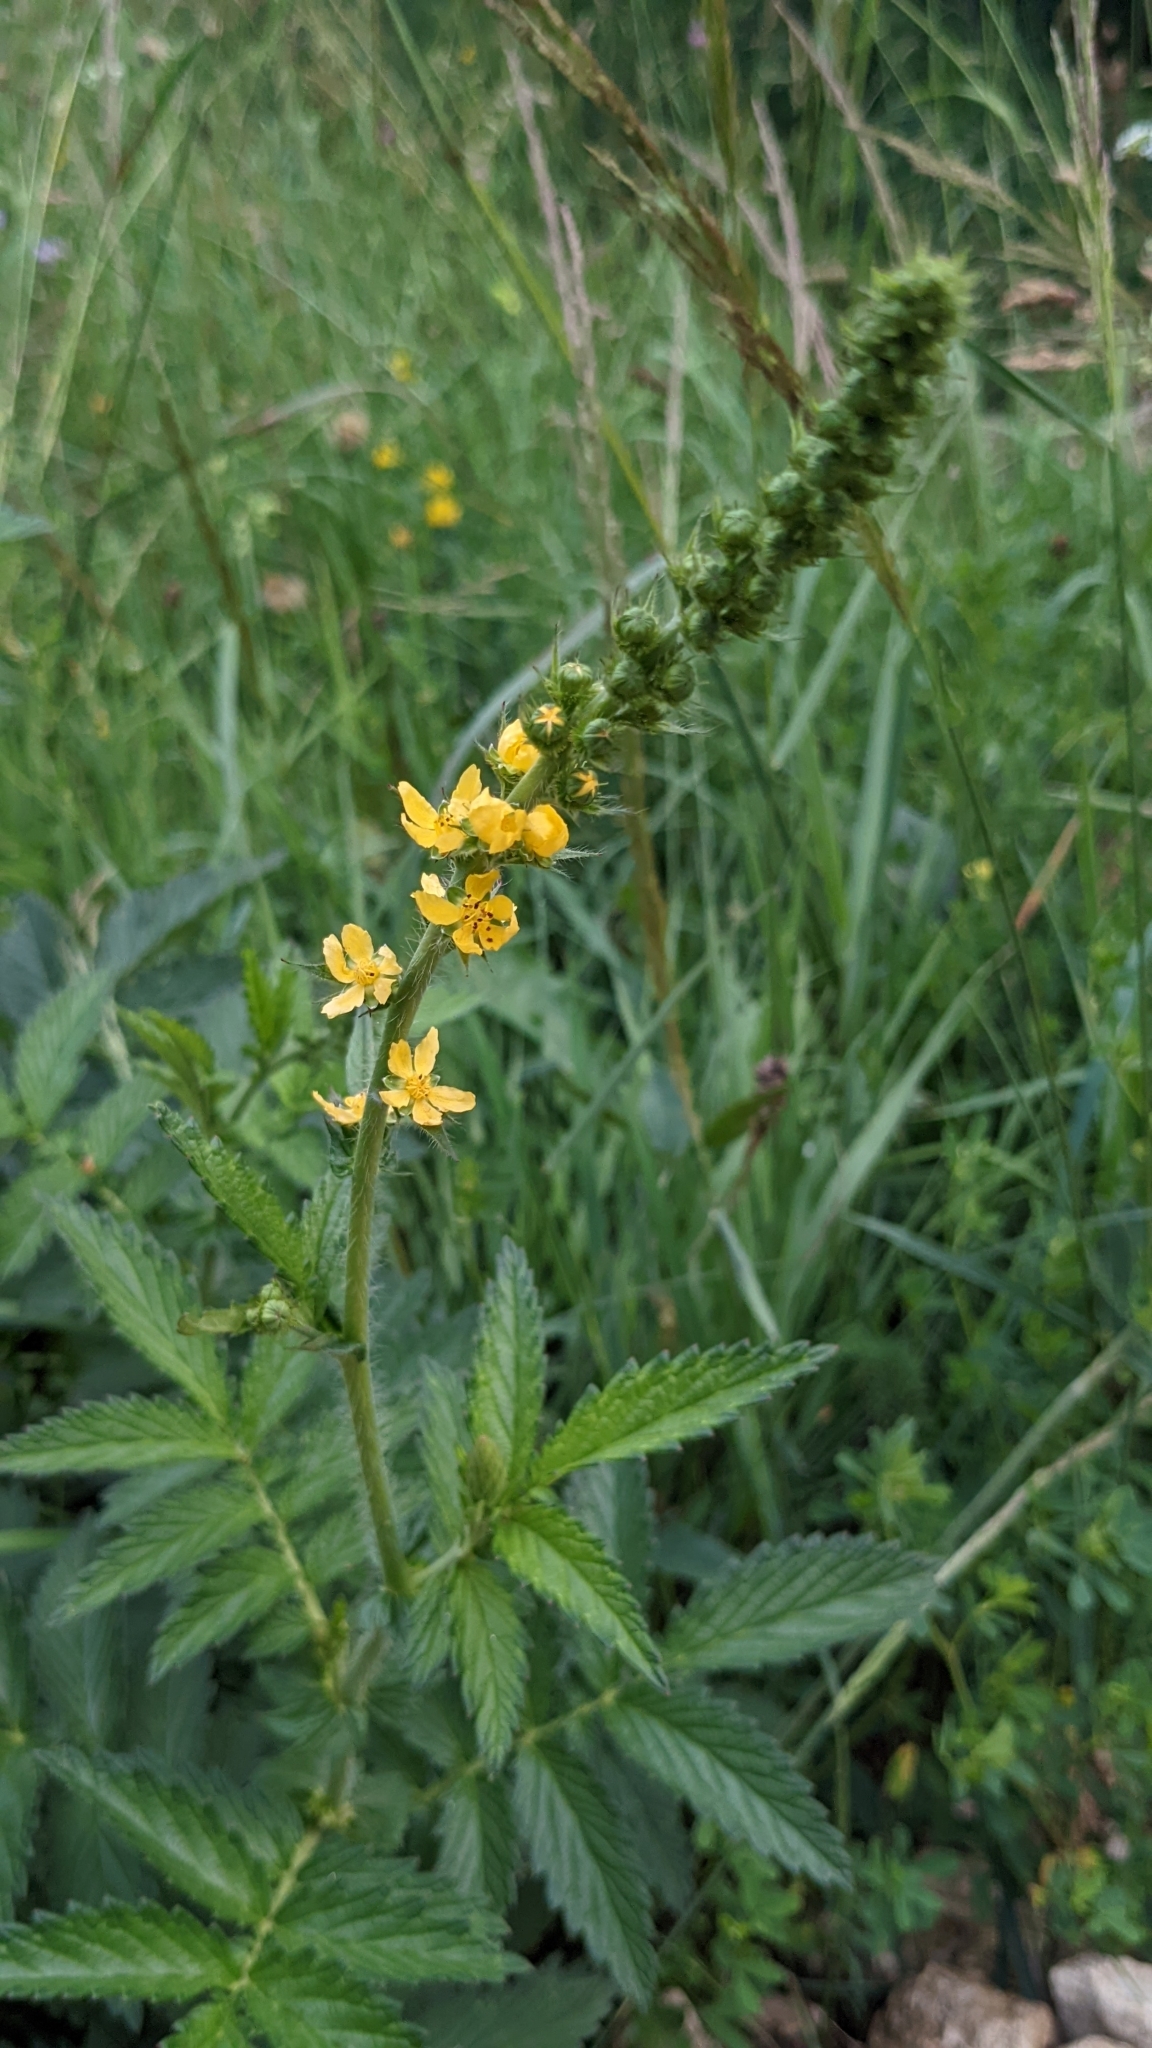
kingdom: Plantae
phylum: Tracheophyta
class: Magnoliopsida
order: Rosales
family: Rosaceae
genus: Agrimonia
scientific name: Agrimonia eupatoria
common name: Agrimony
